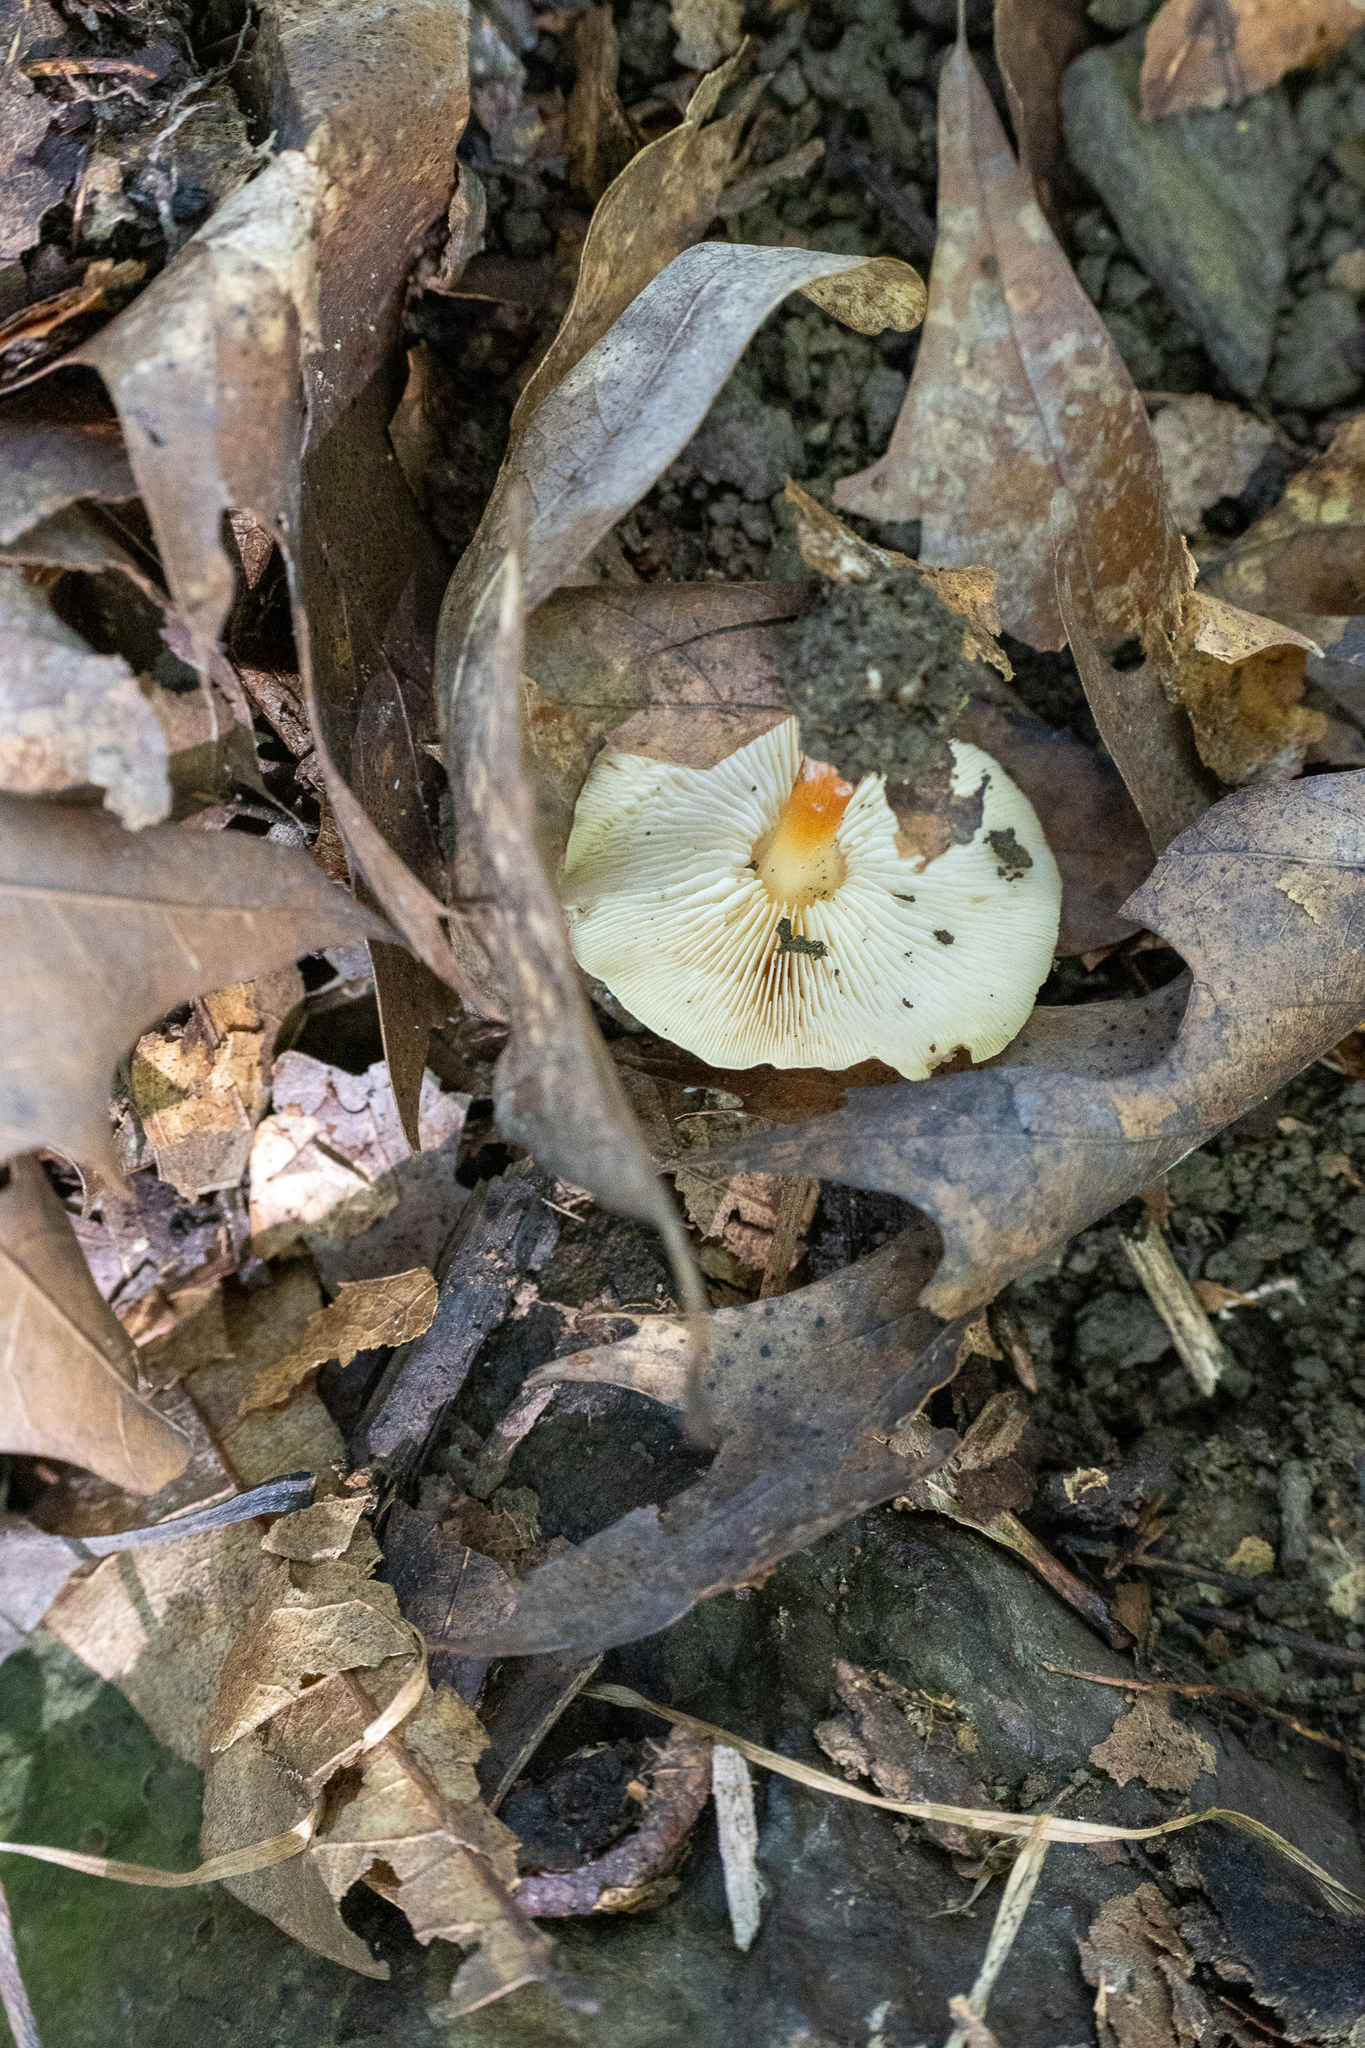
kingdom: Fungi
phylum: Basidiomycota
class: Agaricomycetes
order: Agaricales
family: Omphalotaceae
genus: Gymnopus
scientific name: Gymnopus dryophilus
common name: Penny top
